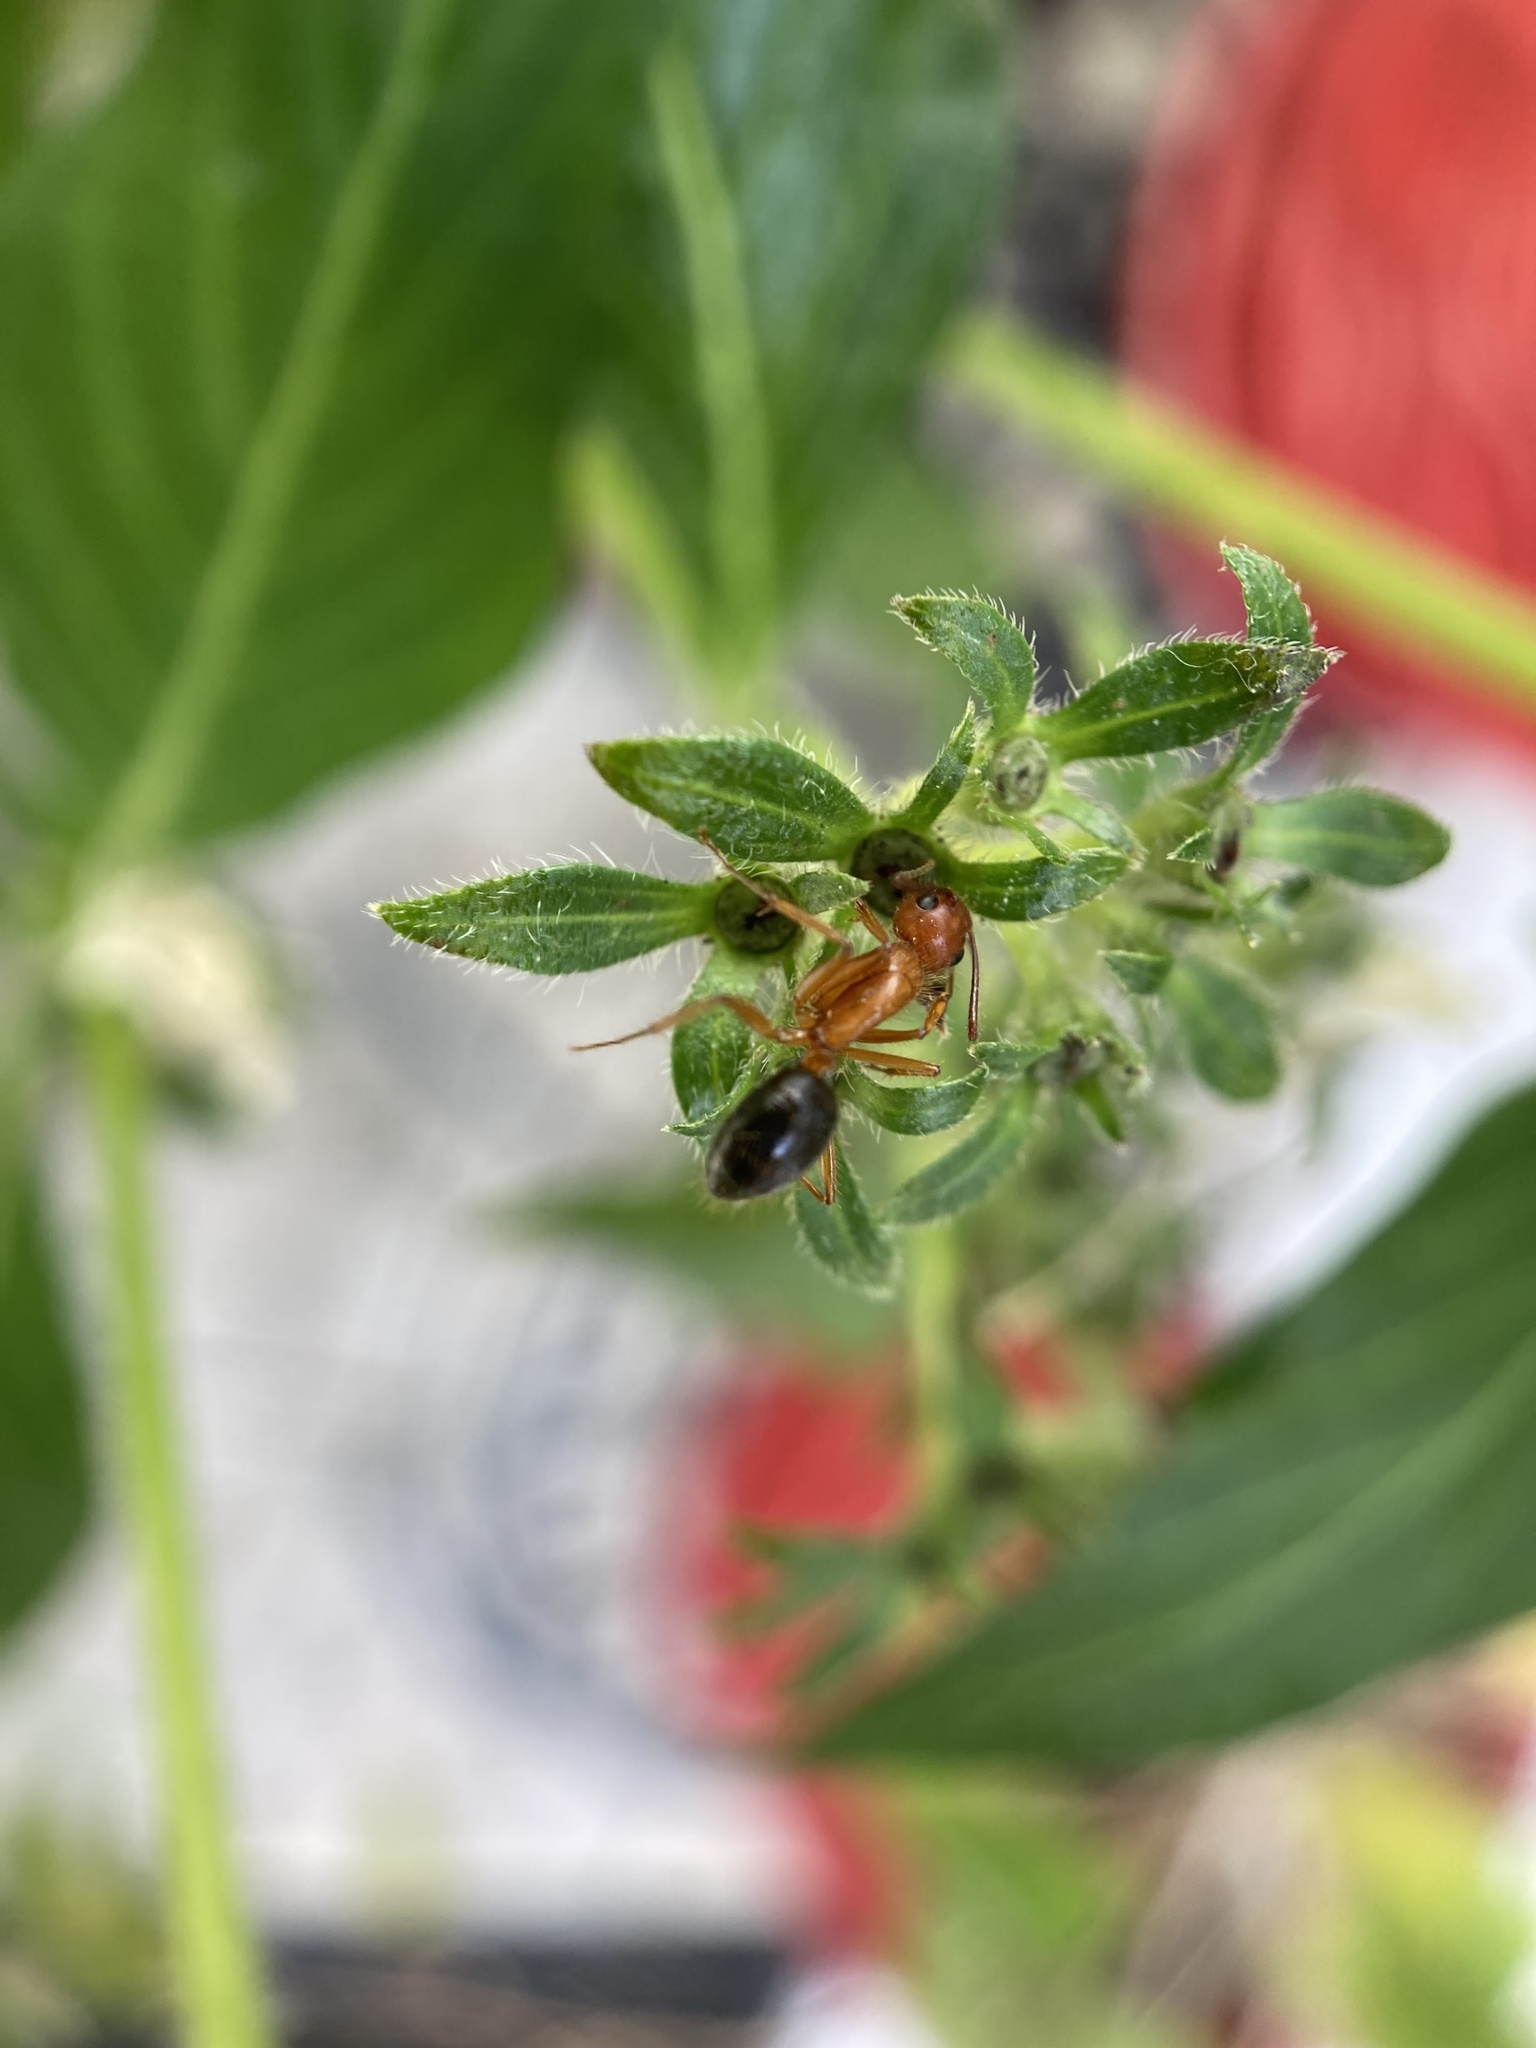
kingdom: Animalia
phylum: Arthropoda
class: Insecta
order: Hymenoptera
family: Formicidae
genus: Camponotus
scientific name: Camponotus floridanus
